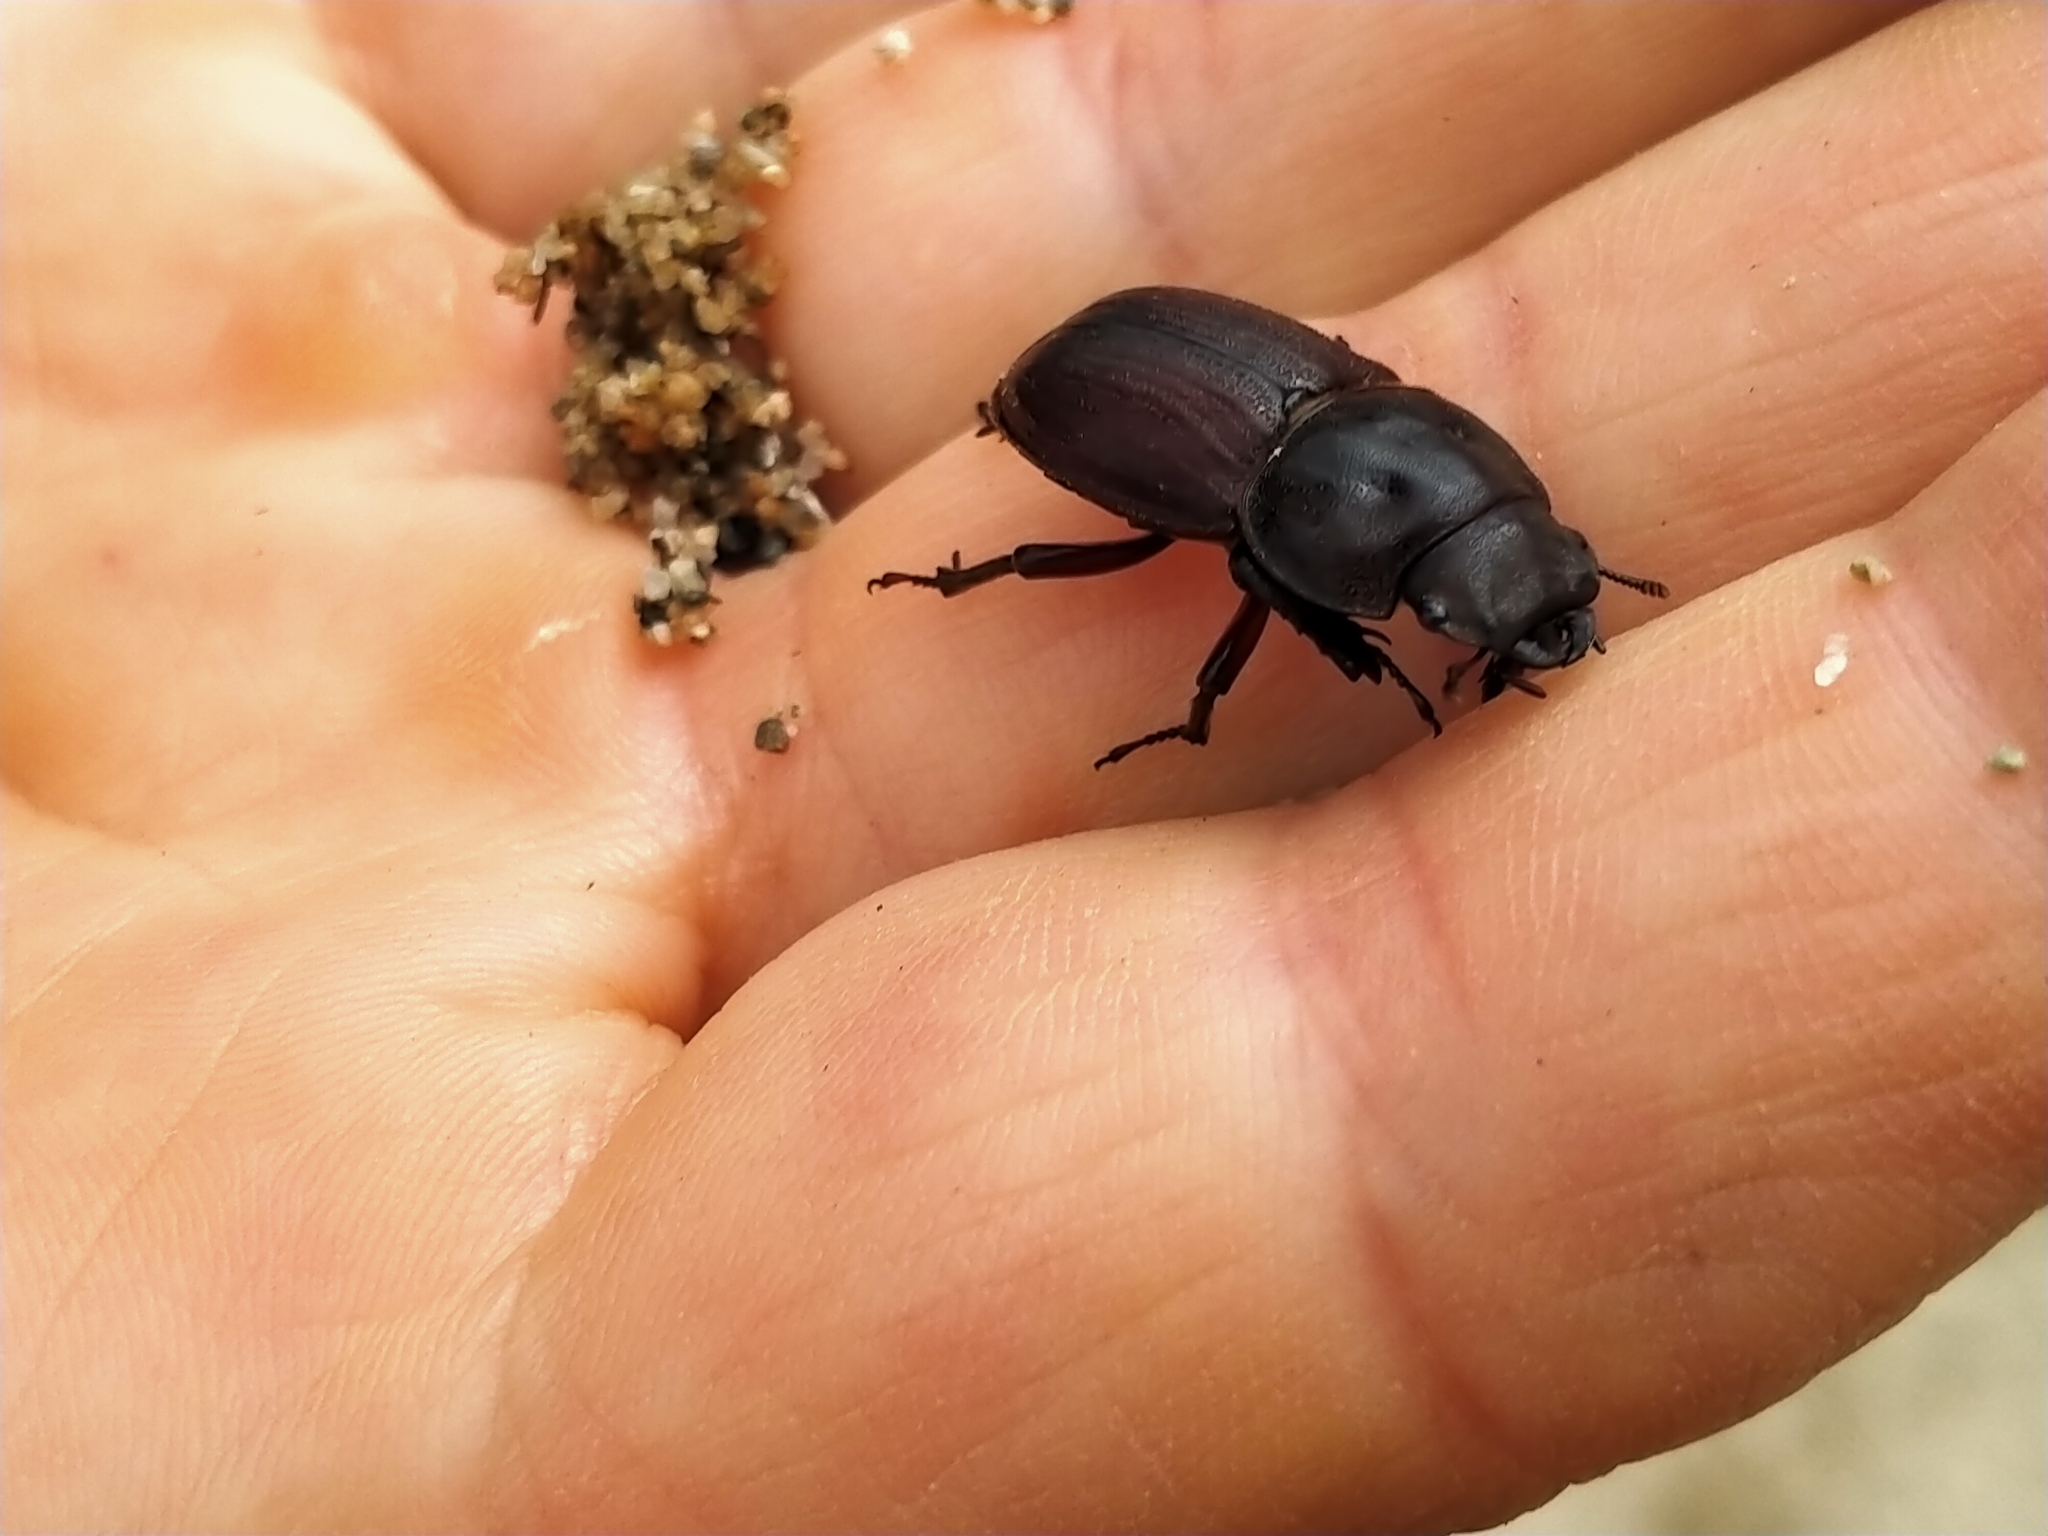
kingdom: Animalia
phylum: Arthropoda
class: Insecta
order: Coleoptera
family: Lucanidae
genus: Geodorcus
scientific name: Geodorcus helmsi
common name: Helm's stag beetle
